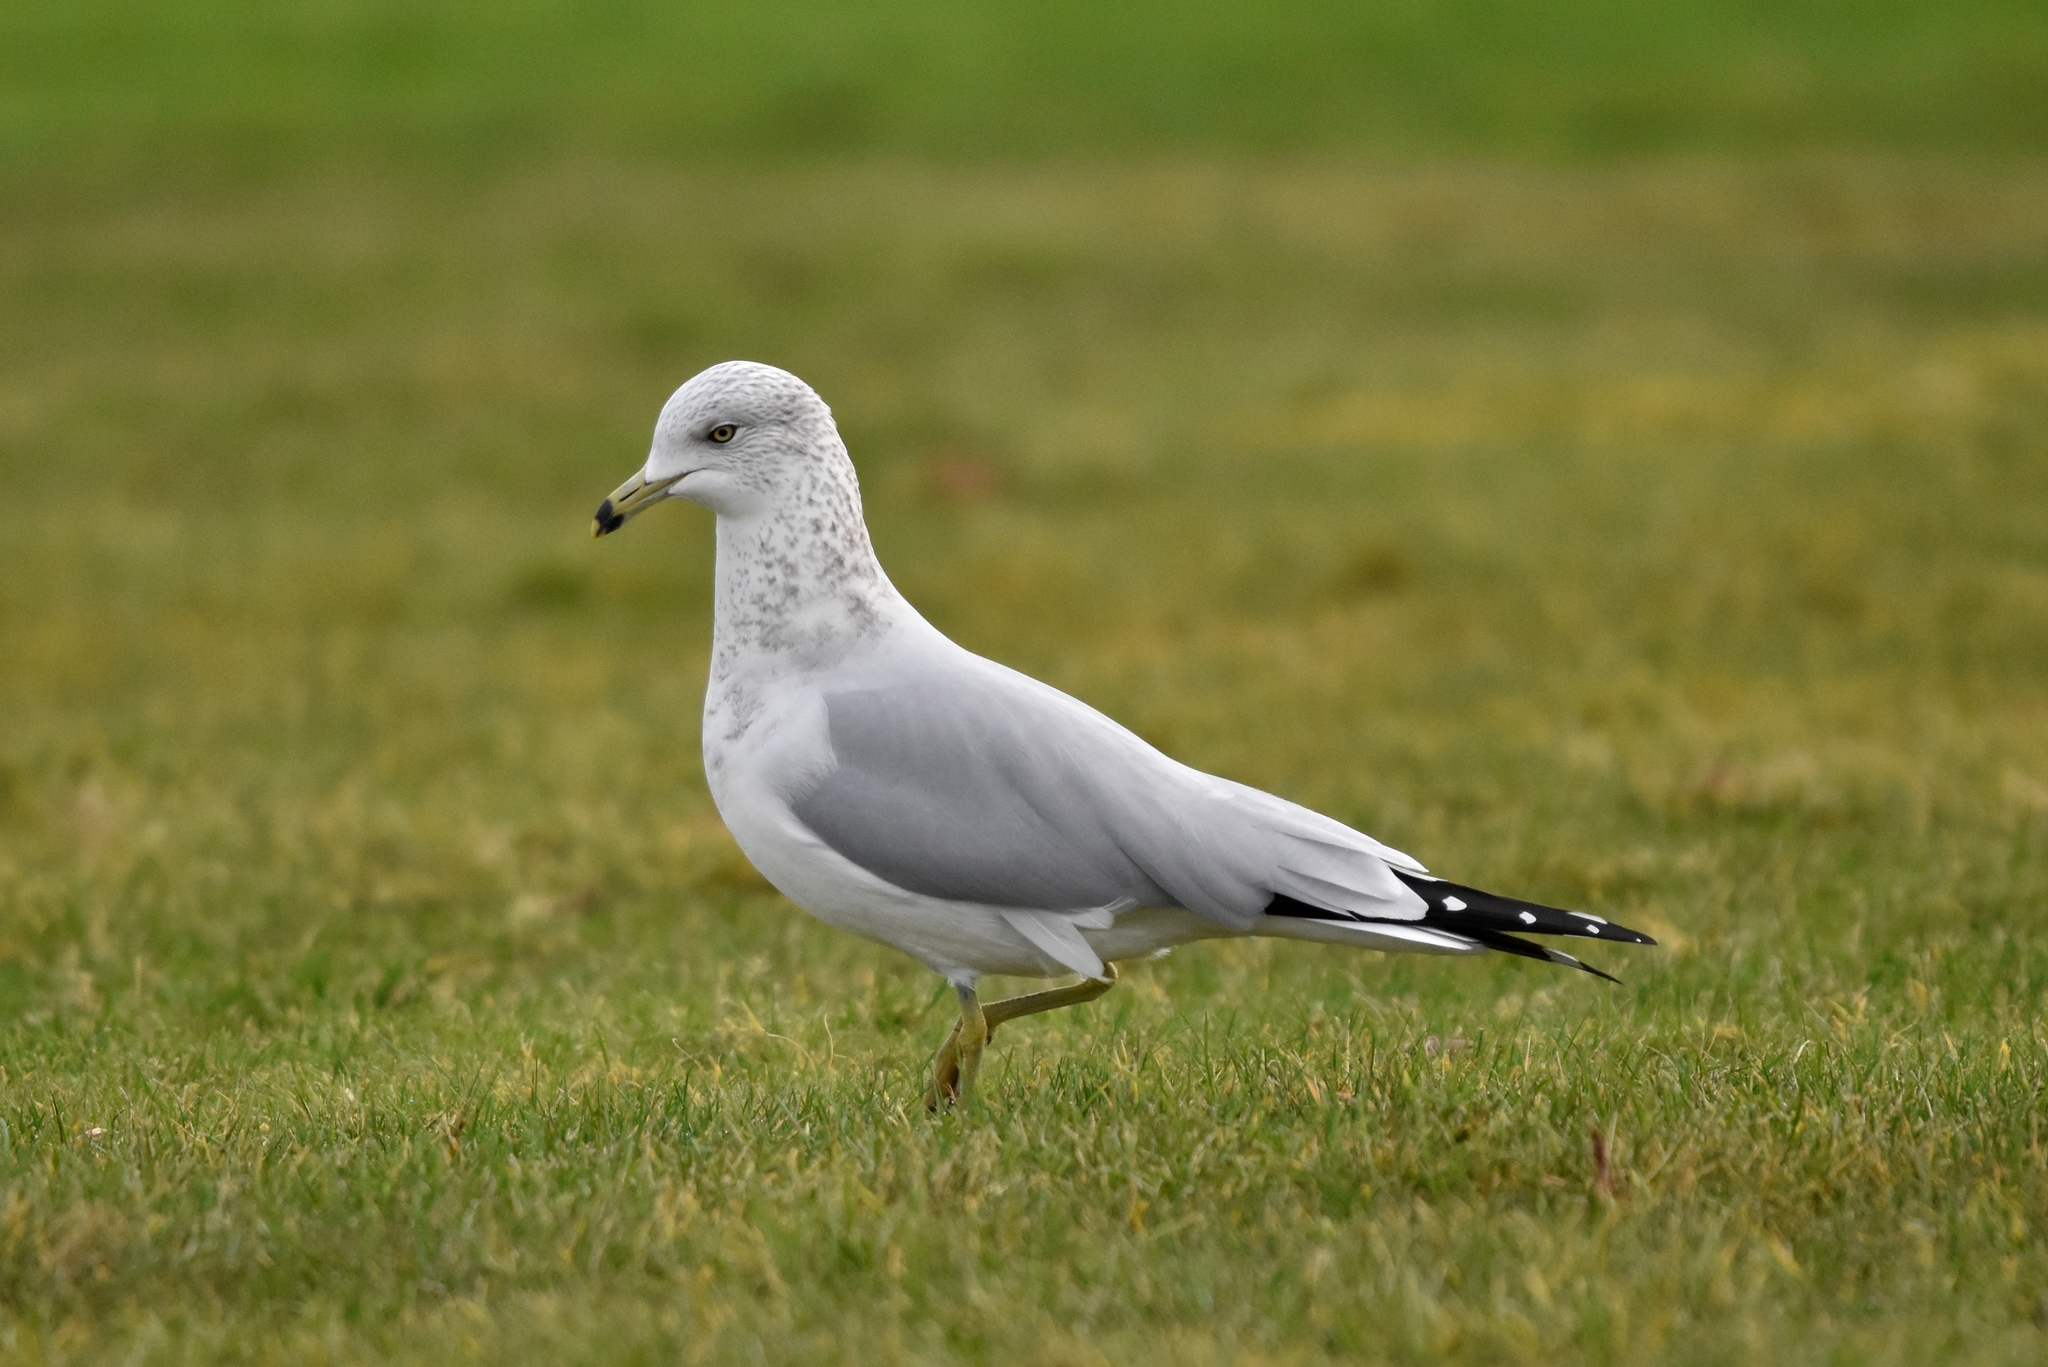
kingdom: Animalia
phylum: Chordata
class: Aves
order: Charadriiformes
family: Laridae
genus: Larus
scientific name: Larus delawarensis
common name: Ring-billed gull
